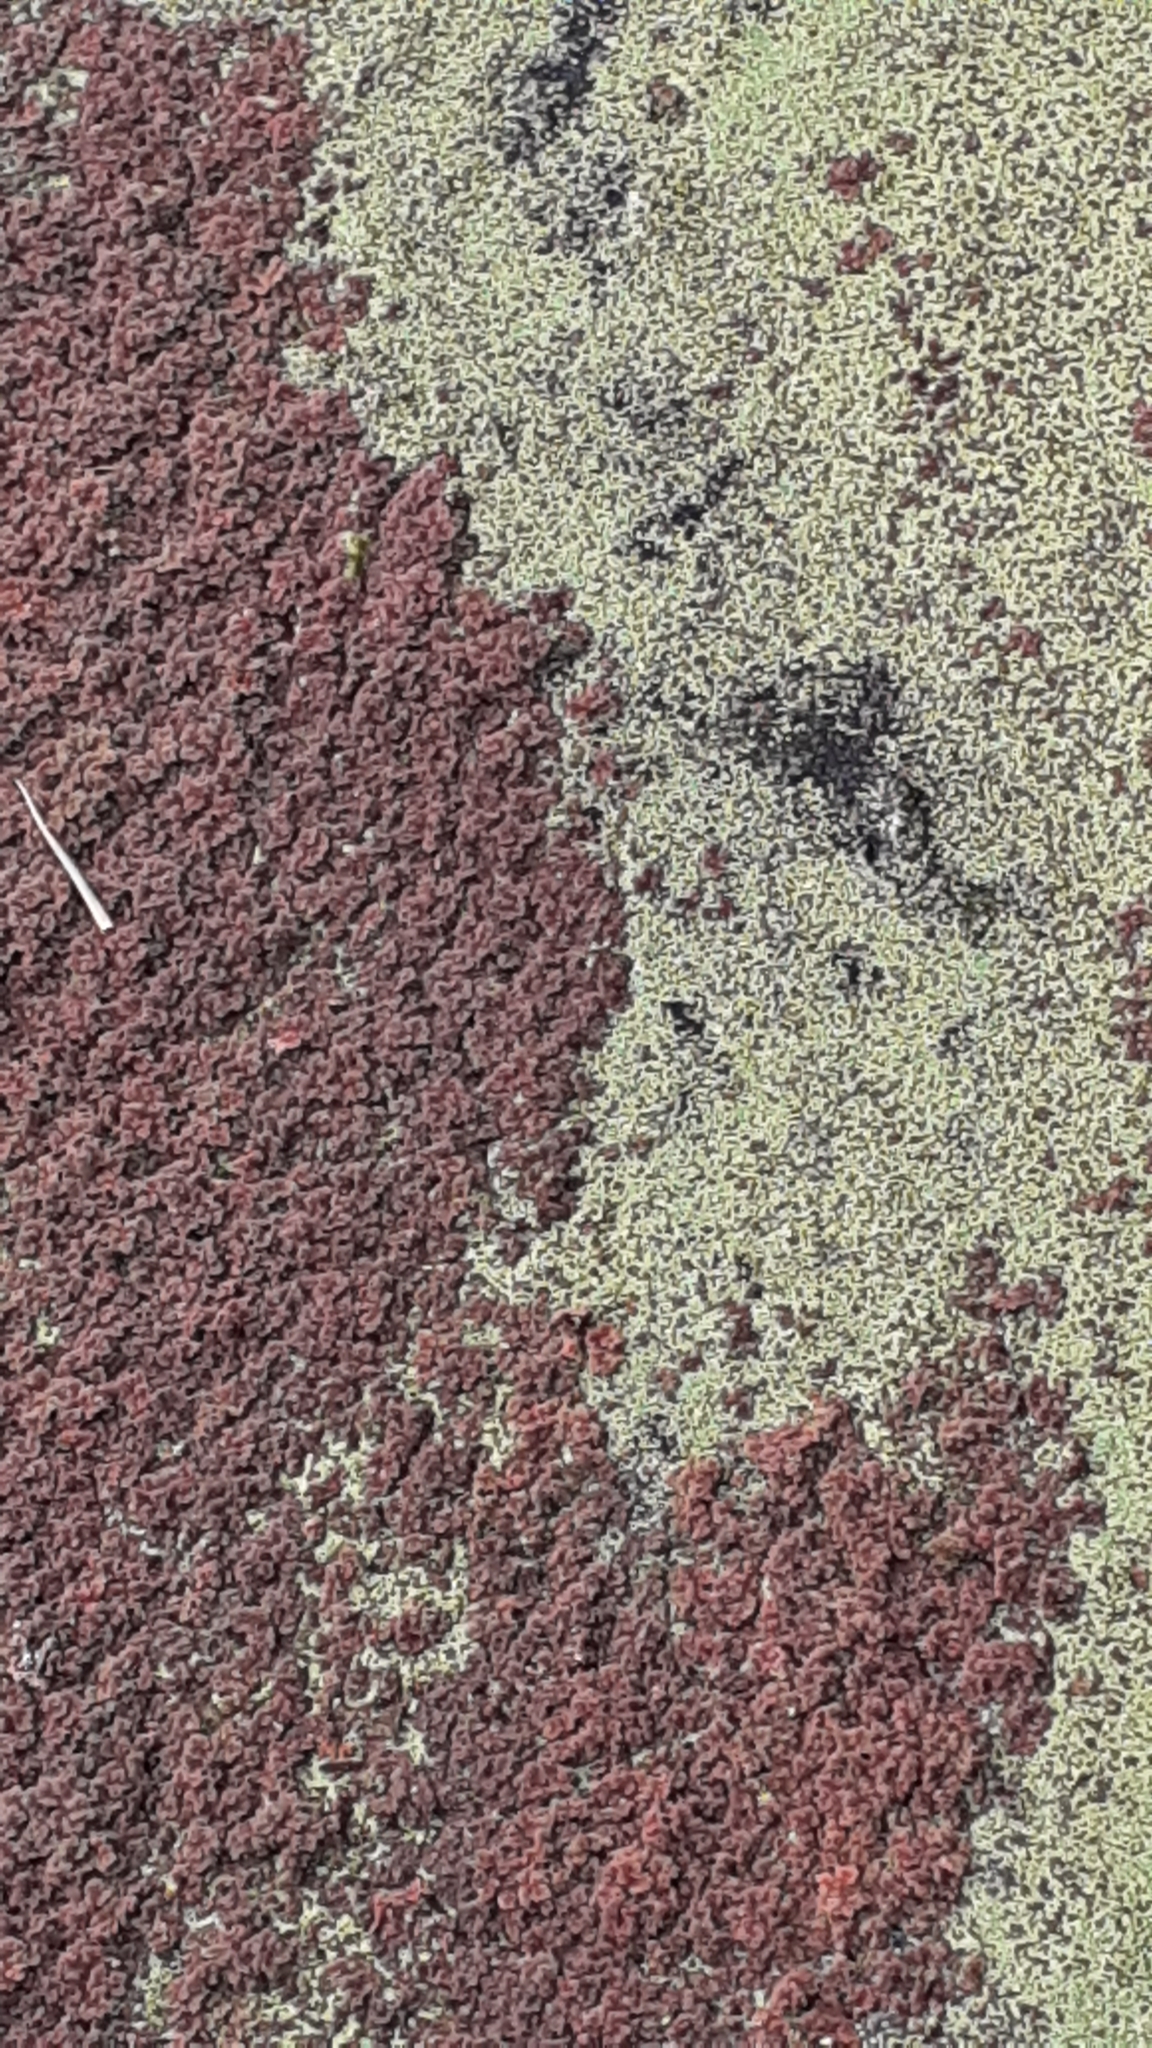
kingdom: Plantae
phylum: Tracheophyta
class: Polypodiopsida
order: Salviniales
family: Salviniaceae
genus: Azolla
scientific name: Azolla filiculoides
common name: Water fern
